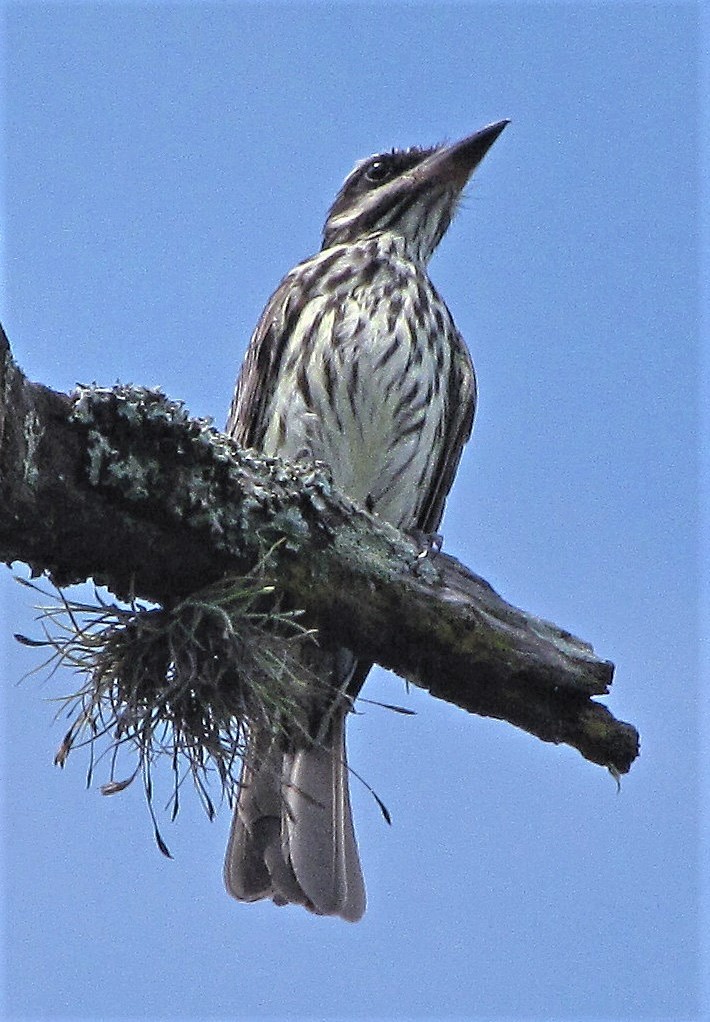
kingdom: Animalia
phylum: Chordata
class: Aves
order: Passeriformes
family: Tyrannidae
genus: Myiodynastes
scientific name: Myiodynastes maculatus
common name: Streaked flycatcher
